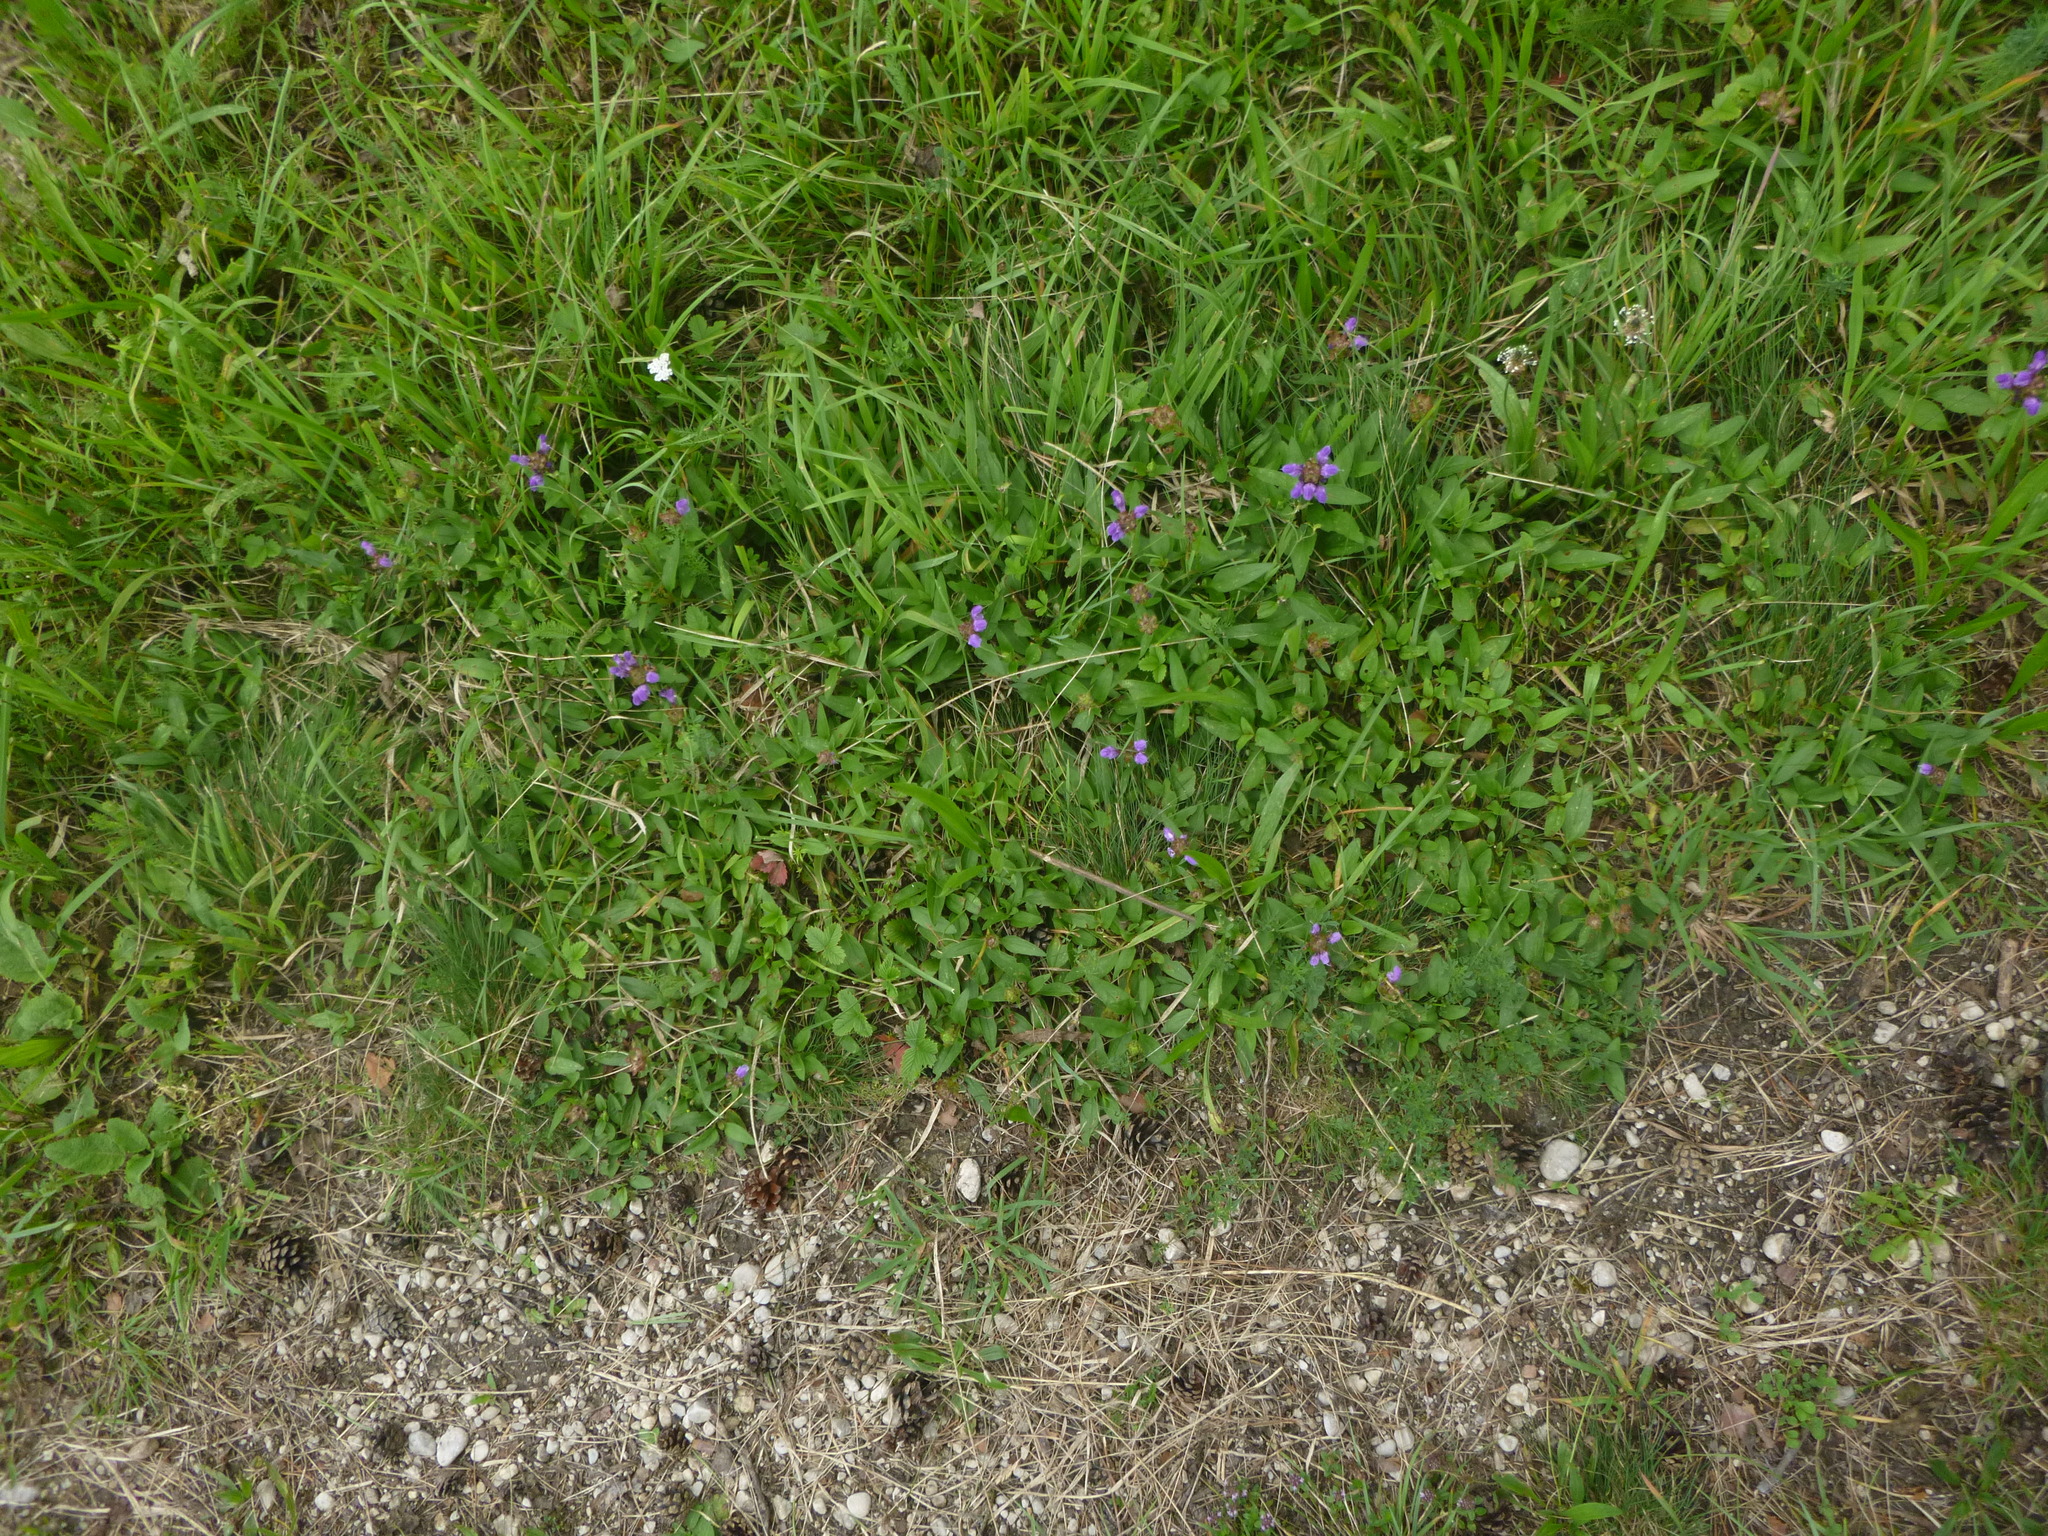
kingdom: Plantae
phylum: Tracheophyta
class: Magnoliopsida
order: Lamiales
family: Lamiaceae
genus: Prunella
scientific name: Prunella grandiflora
